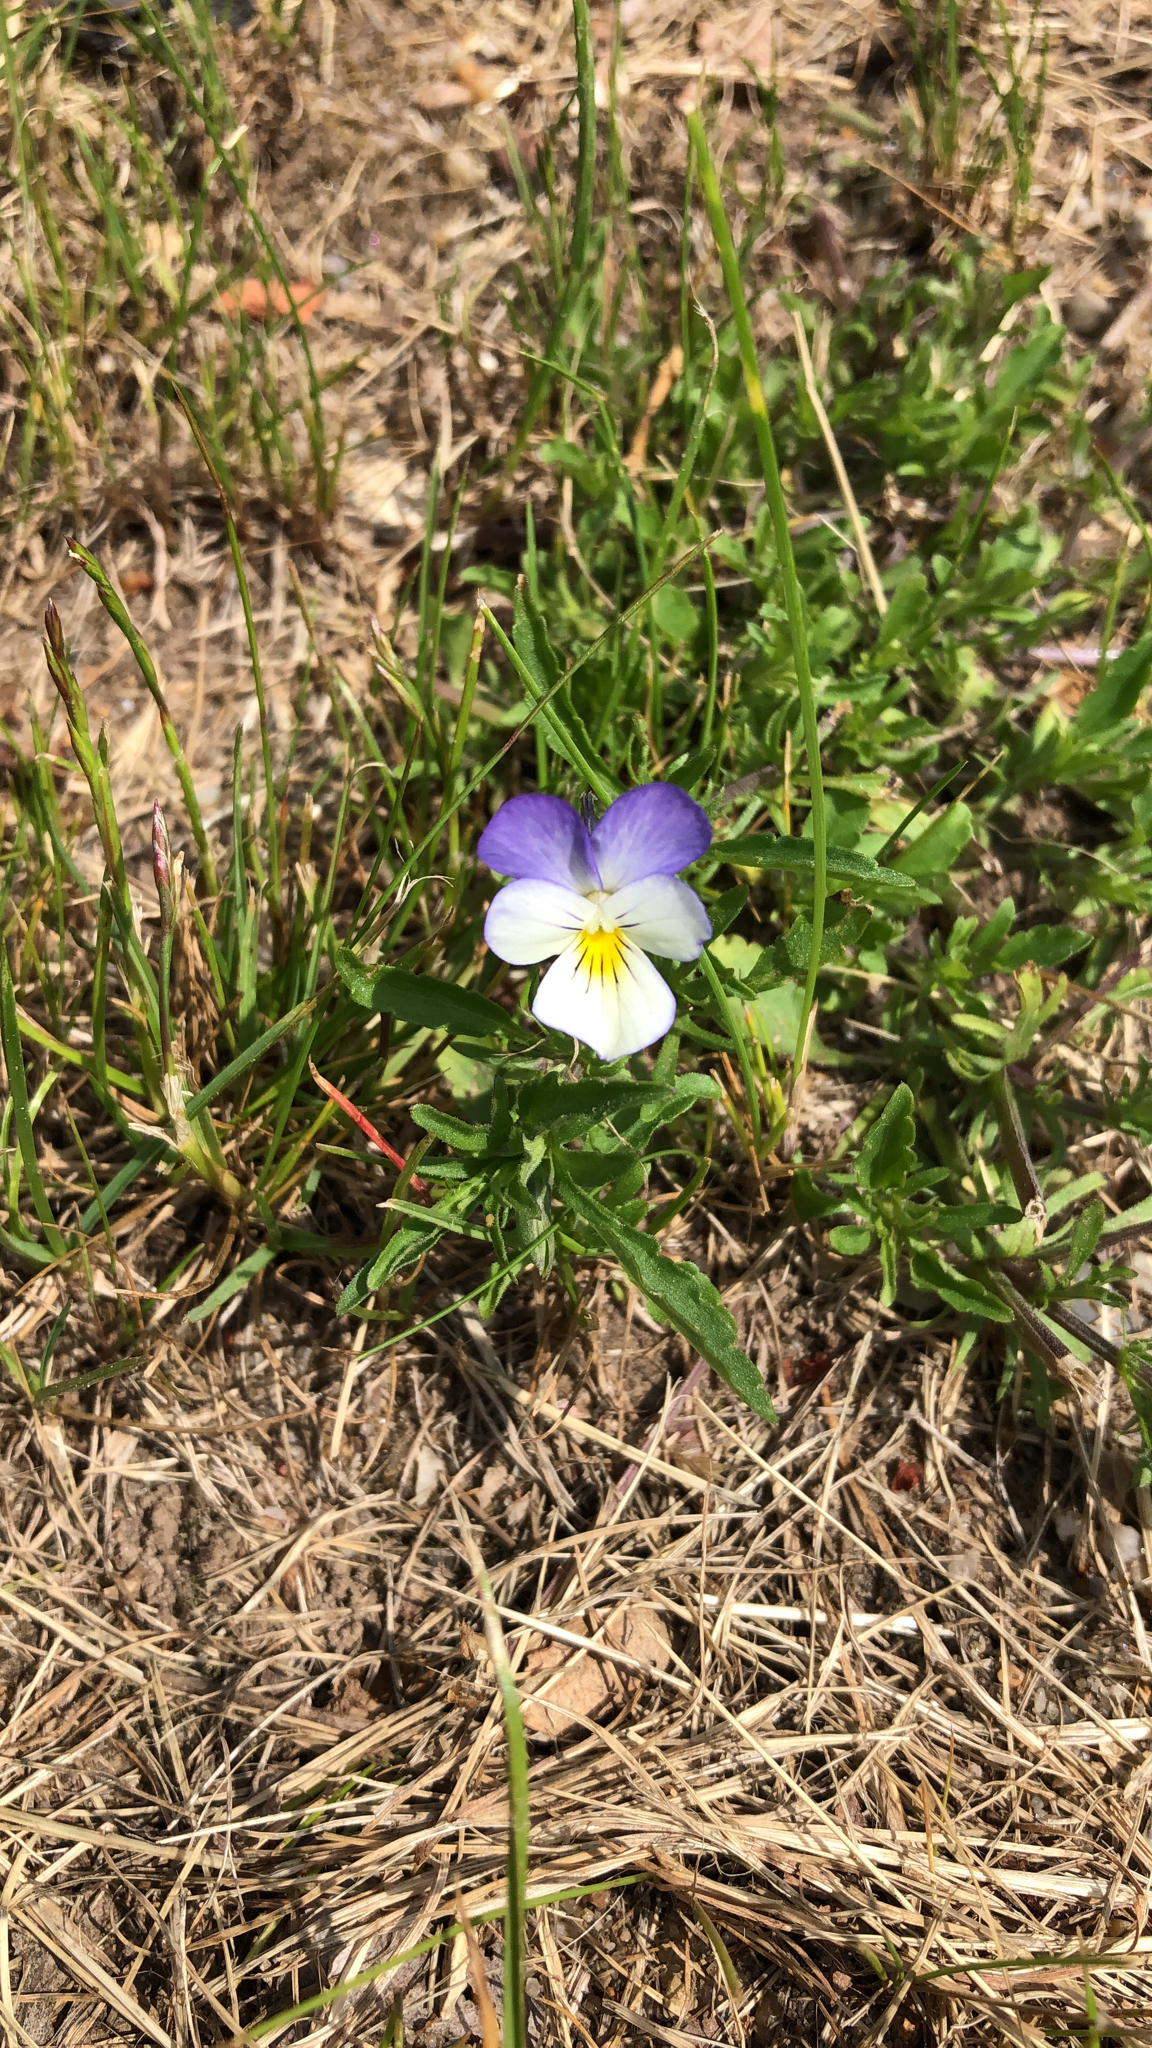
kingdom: Plantae
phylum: Tracheophyta
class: Magnoliopsida
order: Malpighiales
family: Violaceae
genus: Viola
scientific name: Viola arvensis
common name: Field pansy
